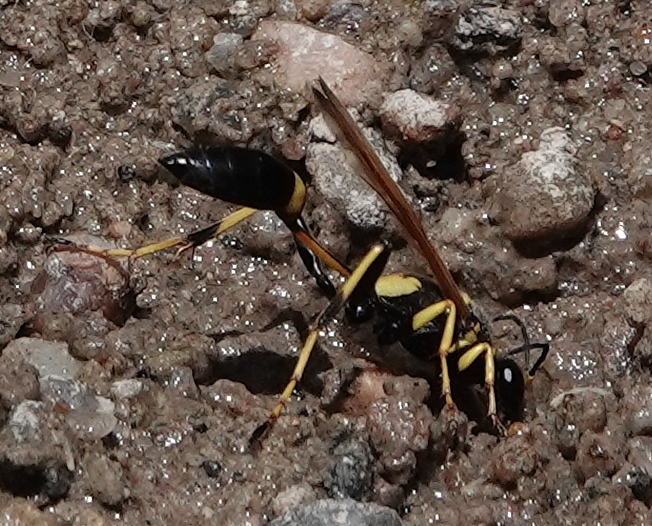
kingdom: Animalia
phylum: Arthropoda
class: Insecta
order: Hymenoptera
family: Sphecidae
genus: Sceliphron
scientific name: Sceliphron caementarium
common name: Mud dauber
